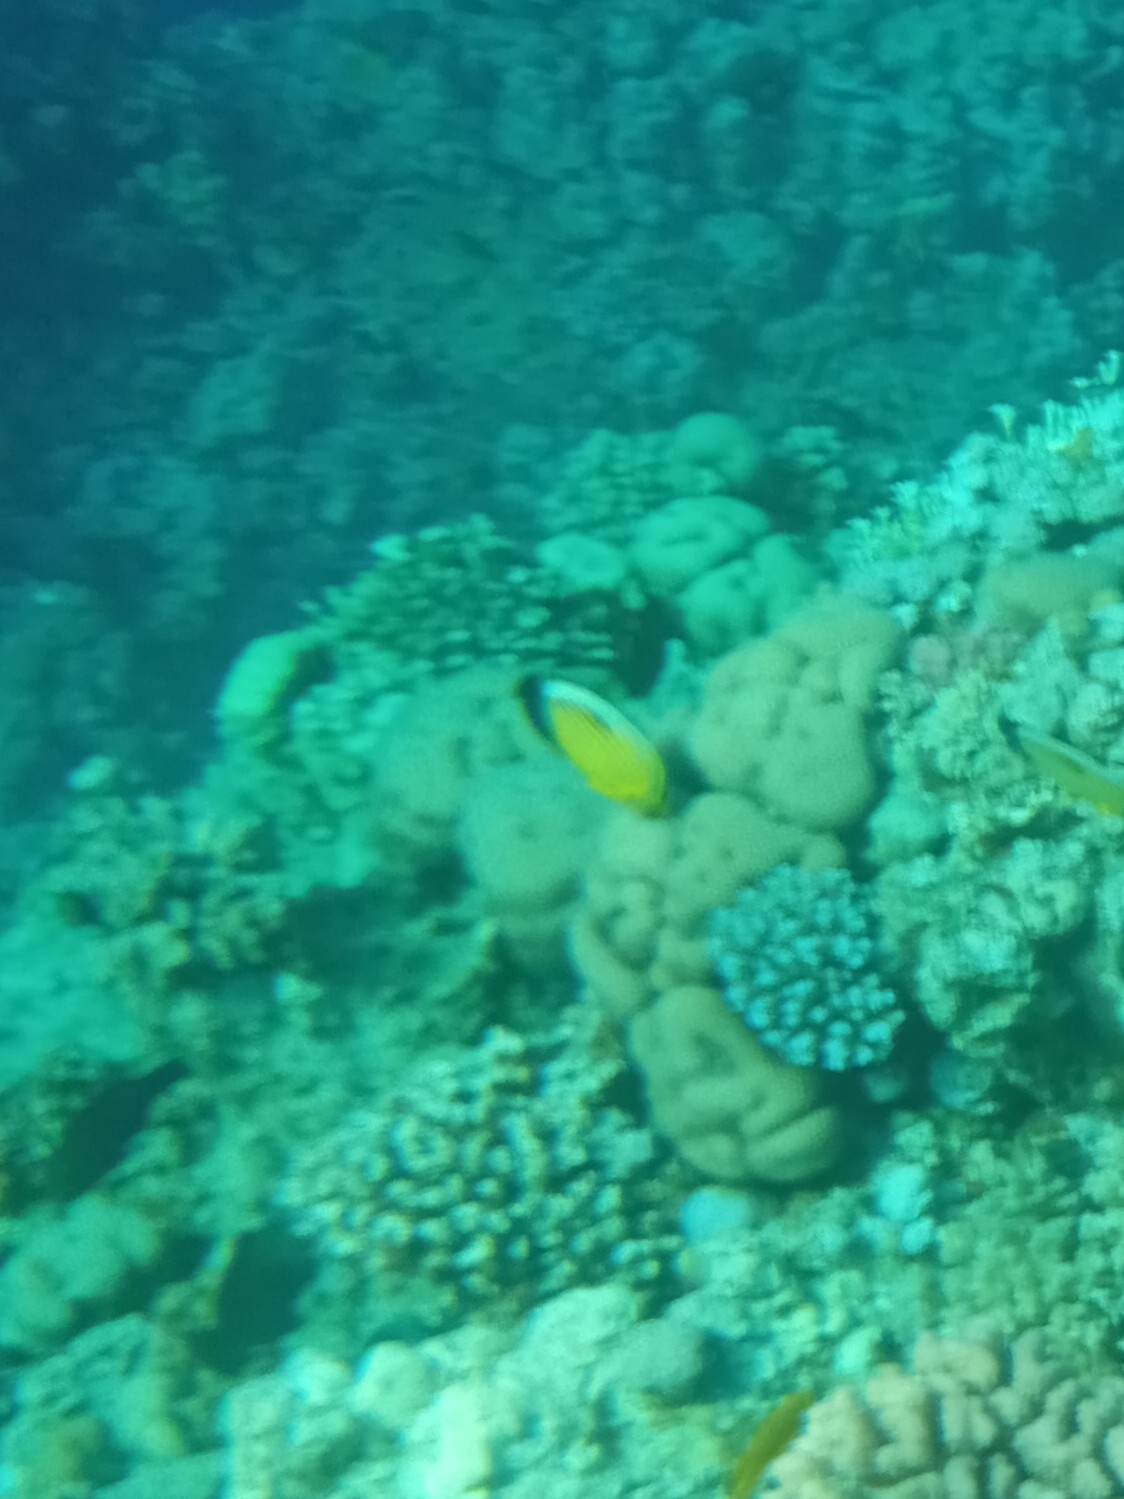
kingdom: Animalia
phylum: Chordata
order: Perciformes
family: Chaetodontidae
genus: Chaetodon
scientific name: Chaetodon austriacus
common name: Exquisite butterflyfish
